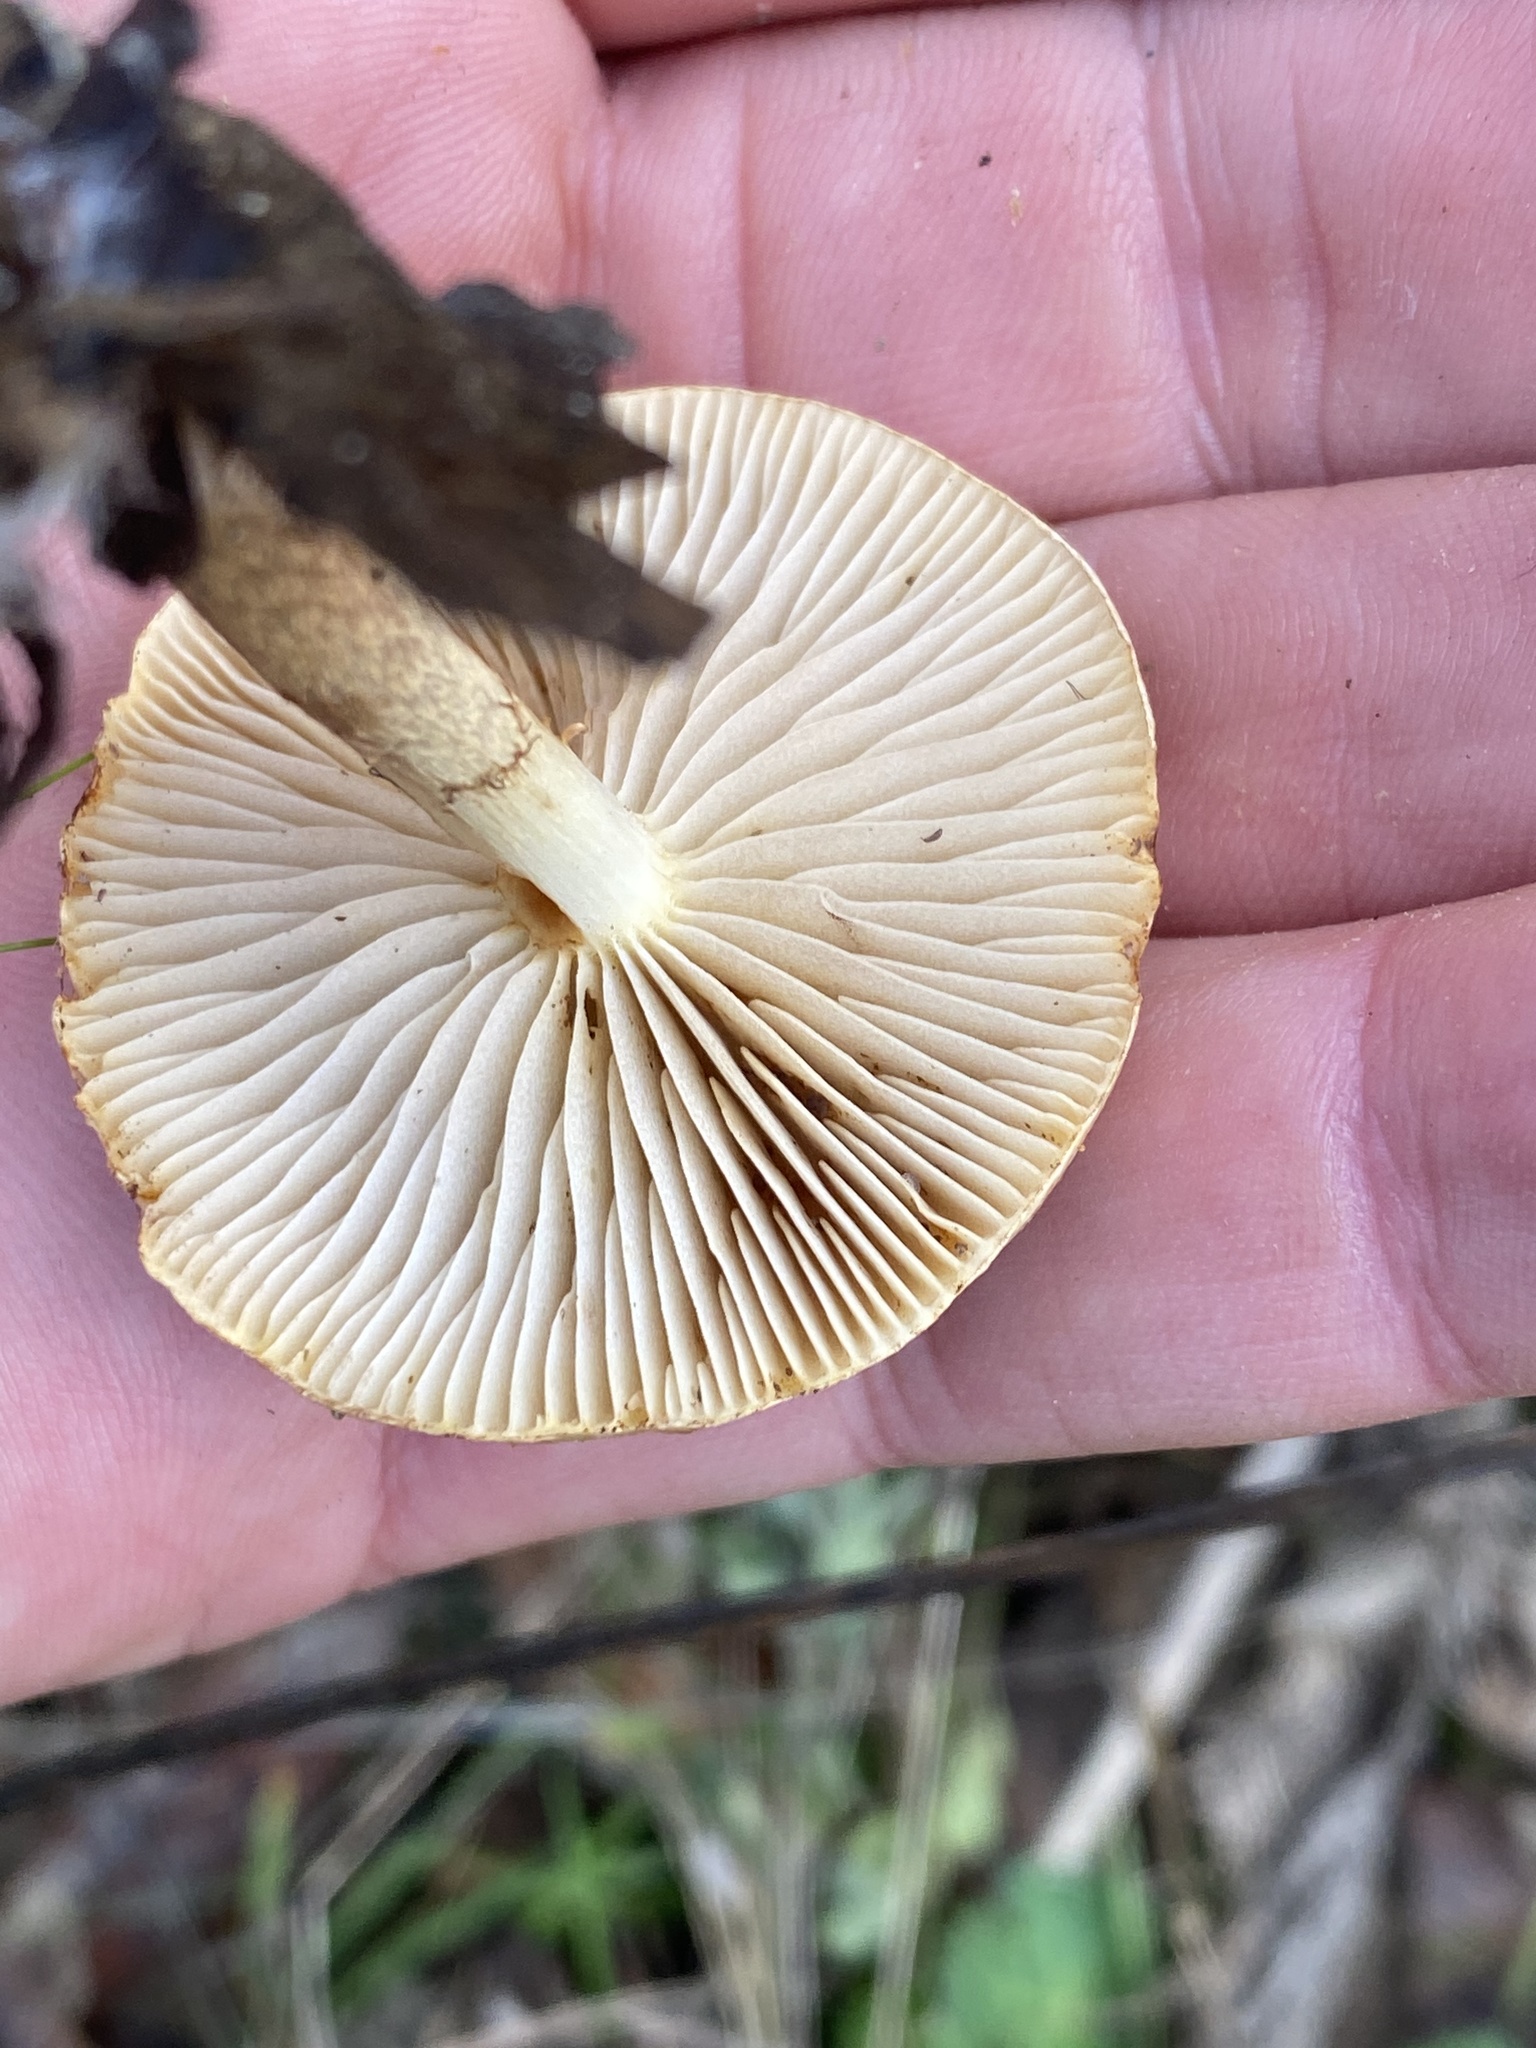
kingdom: Fungi
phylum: Basidiomycota
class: Agaricomycetes
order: Agaricales
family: Strophariaceae
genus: Pholiota
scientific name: Pholiota velaglutinosa
